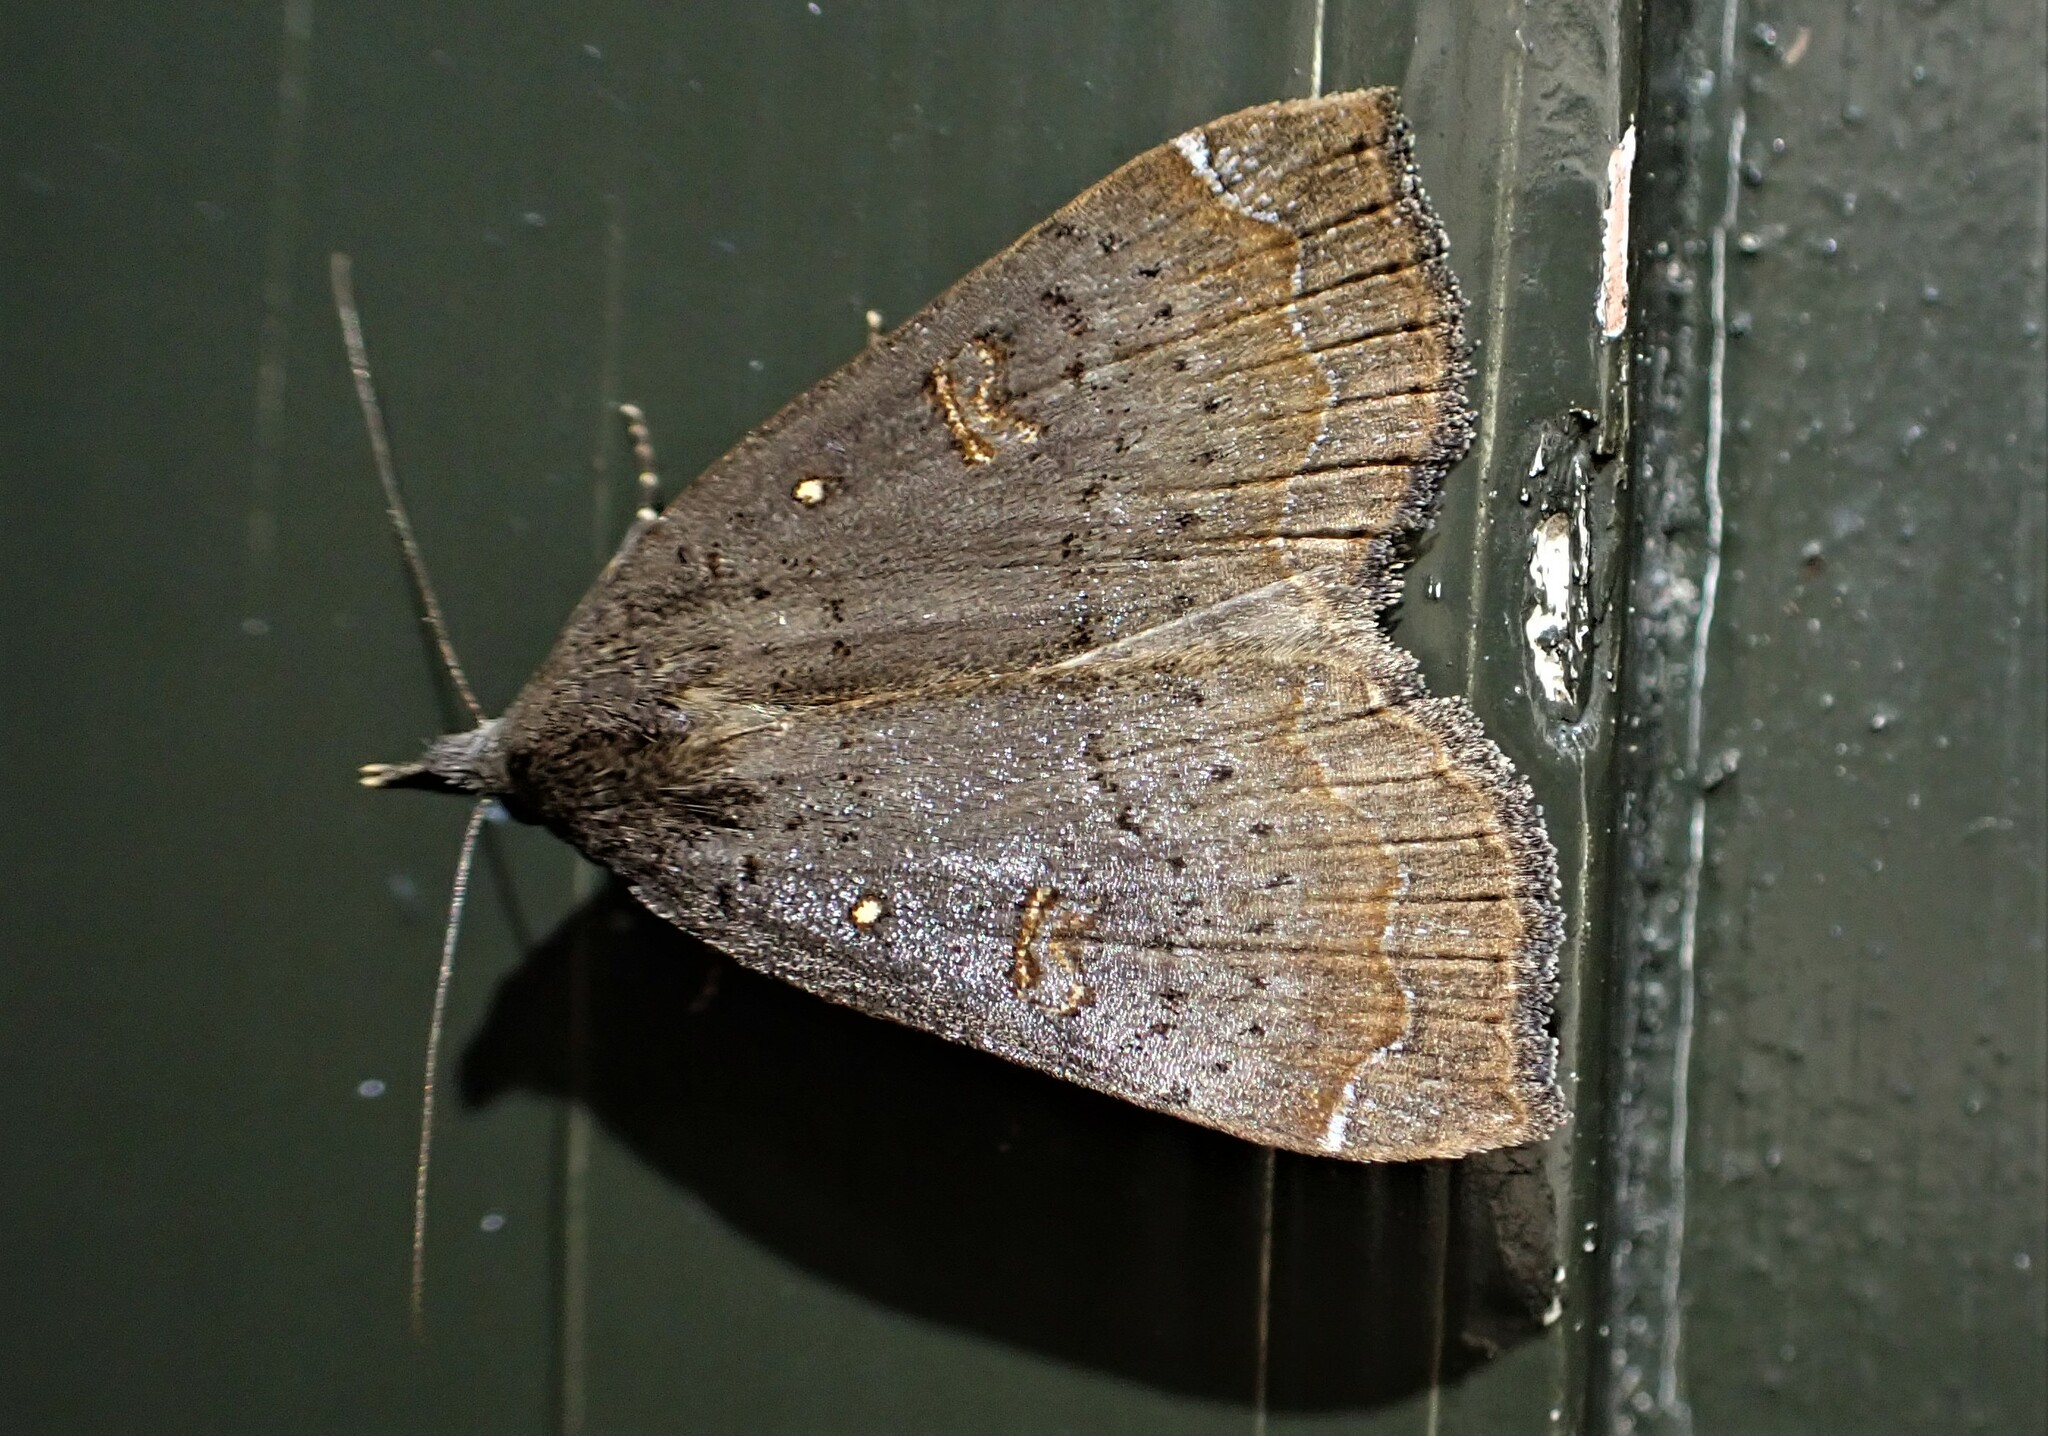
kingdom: Animalia
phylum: Arthropoda
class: Insecta
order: Lepidoptera
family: Erebidae
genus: Rhapsa
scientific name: Rhapsa scotosialis
